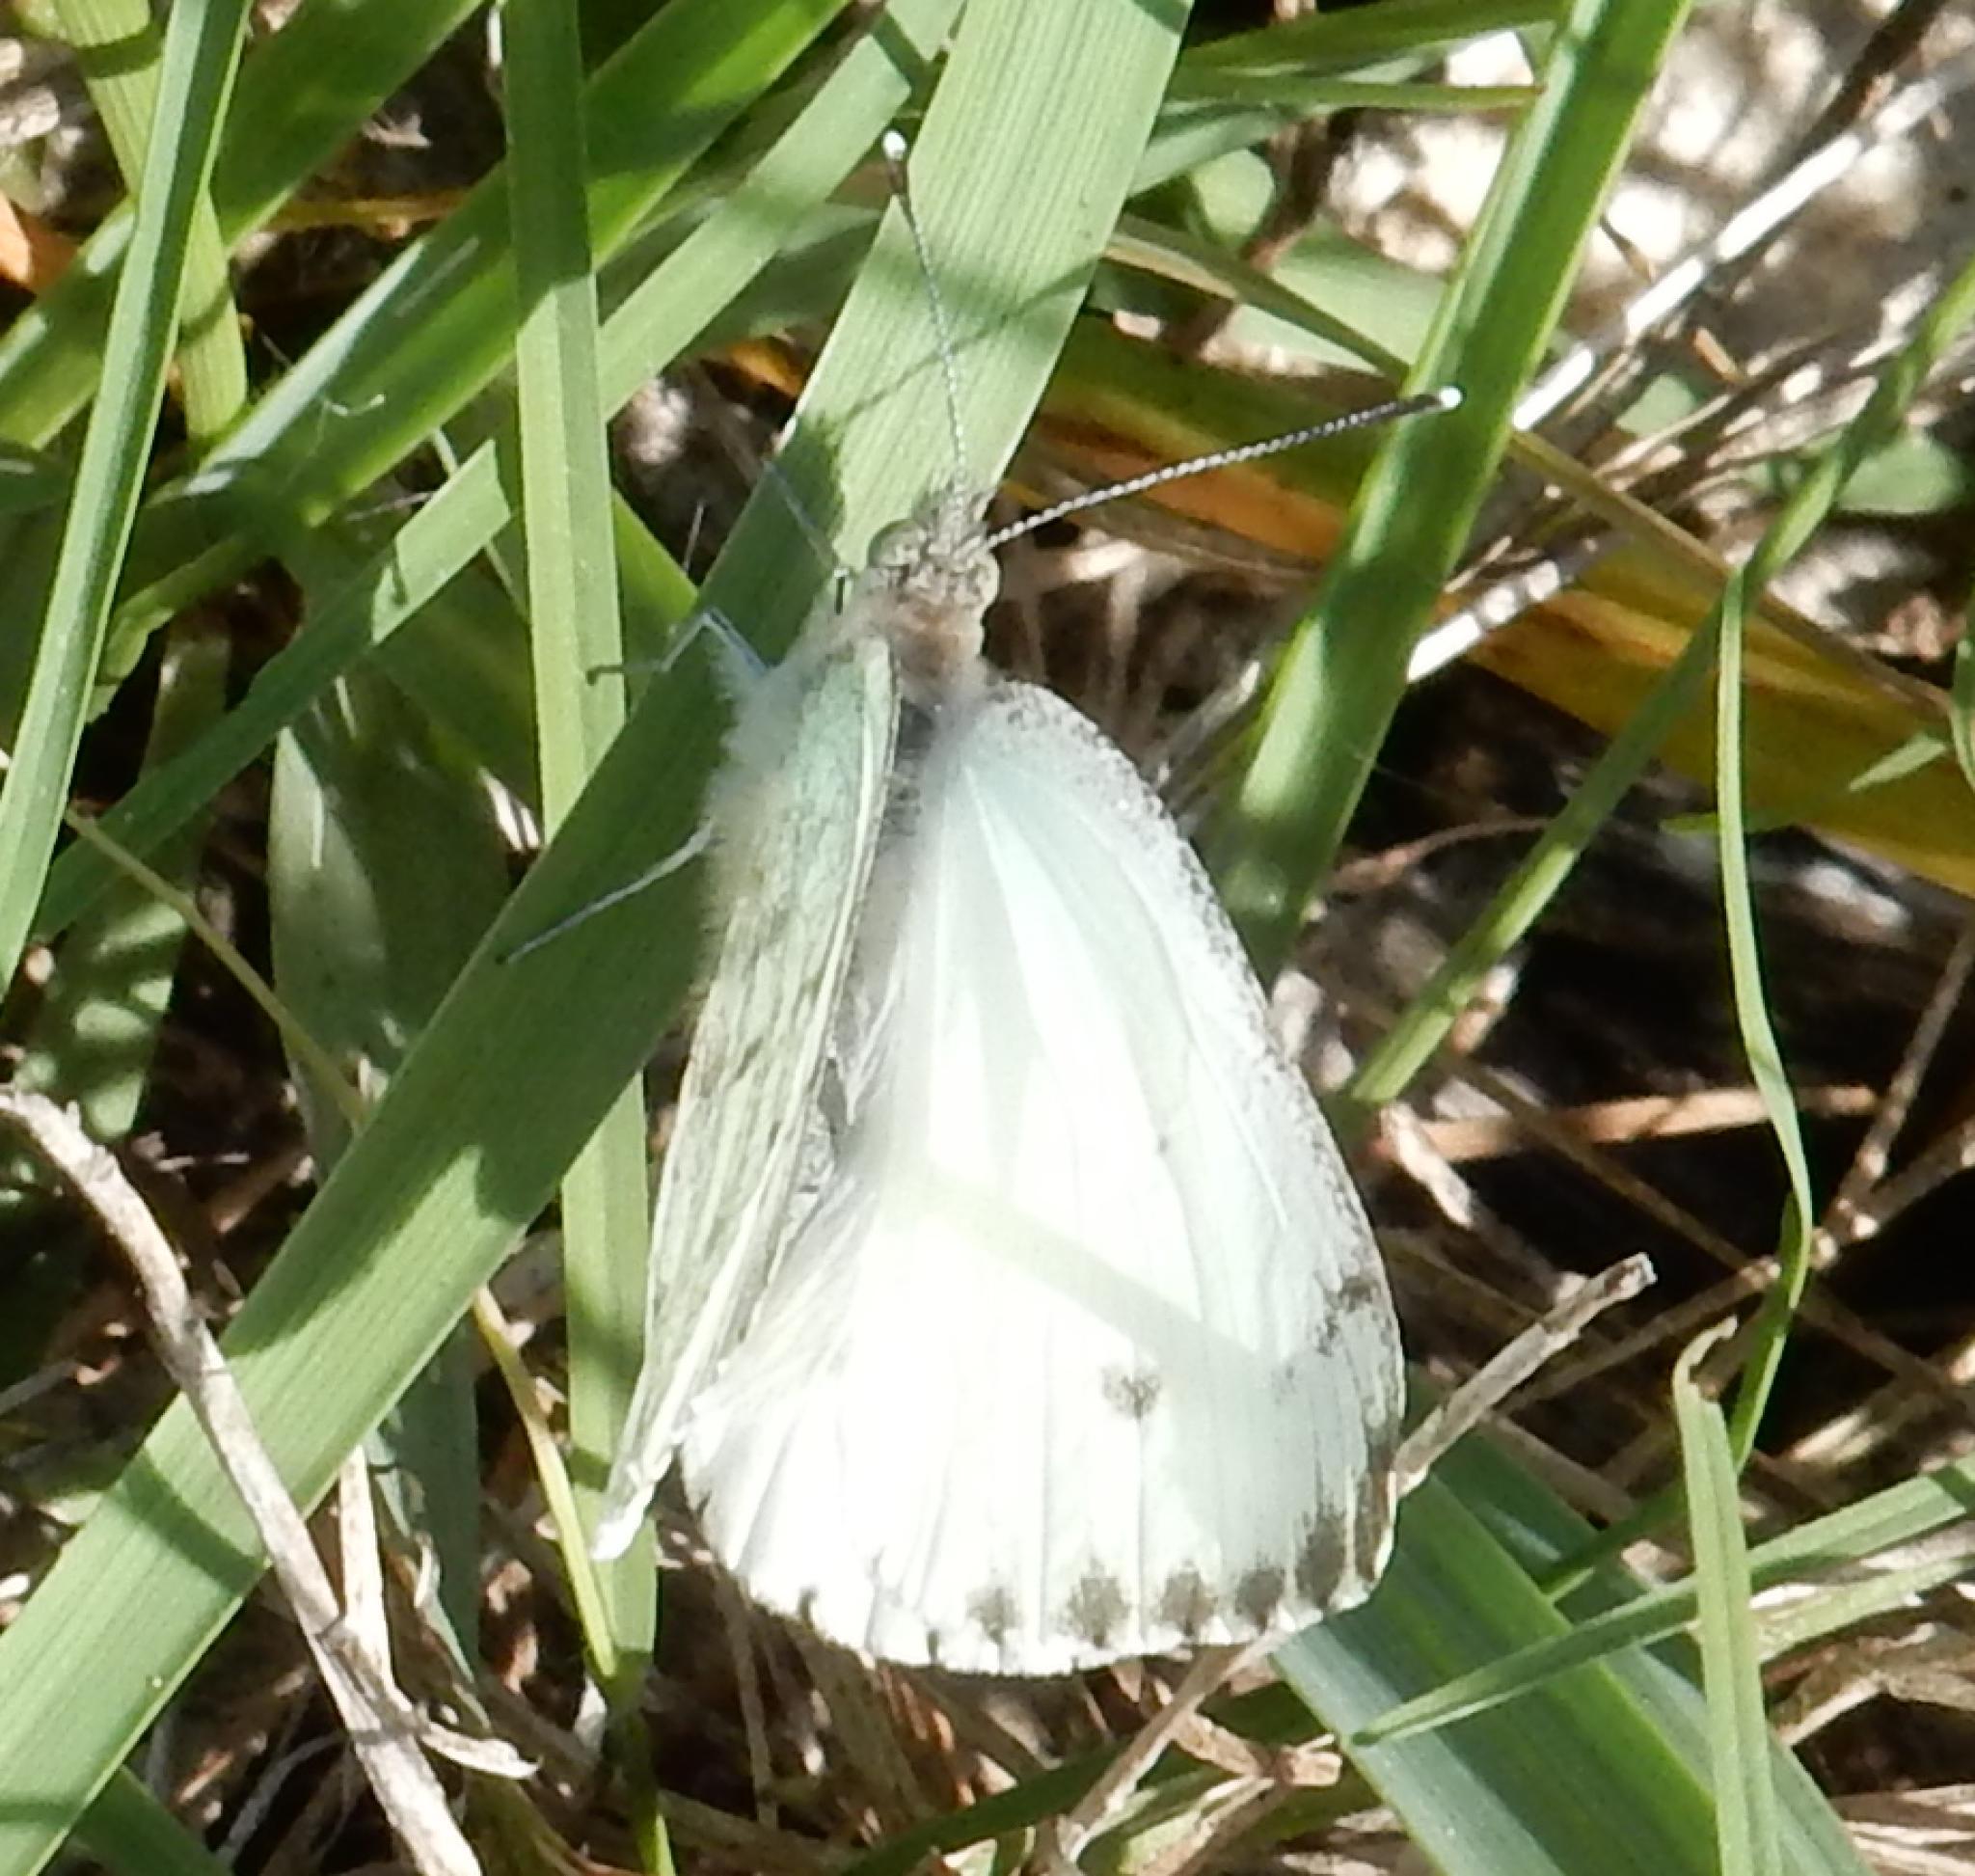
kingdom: Animalia
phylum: Arthropoda
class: Insecta
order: Lepidoptera
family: Pieridae
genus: Dixeia
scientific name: Dixeia charina
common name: African small white
